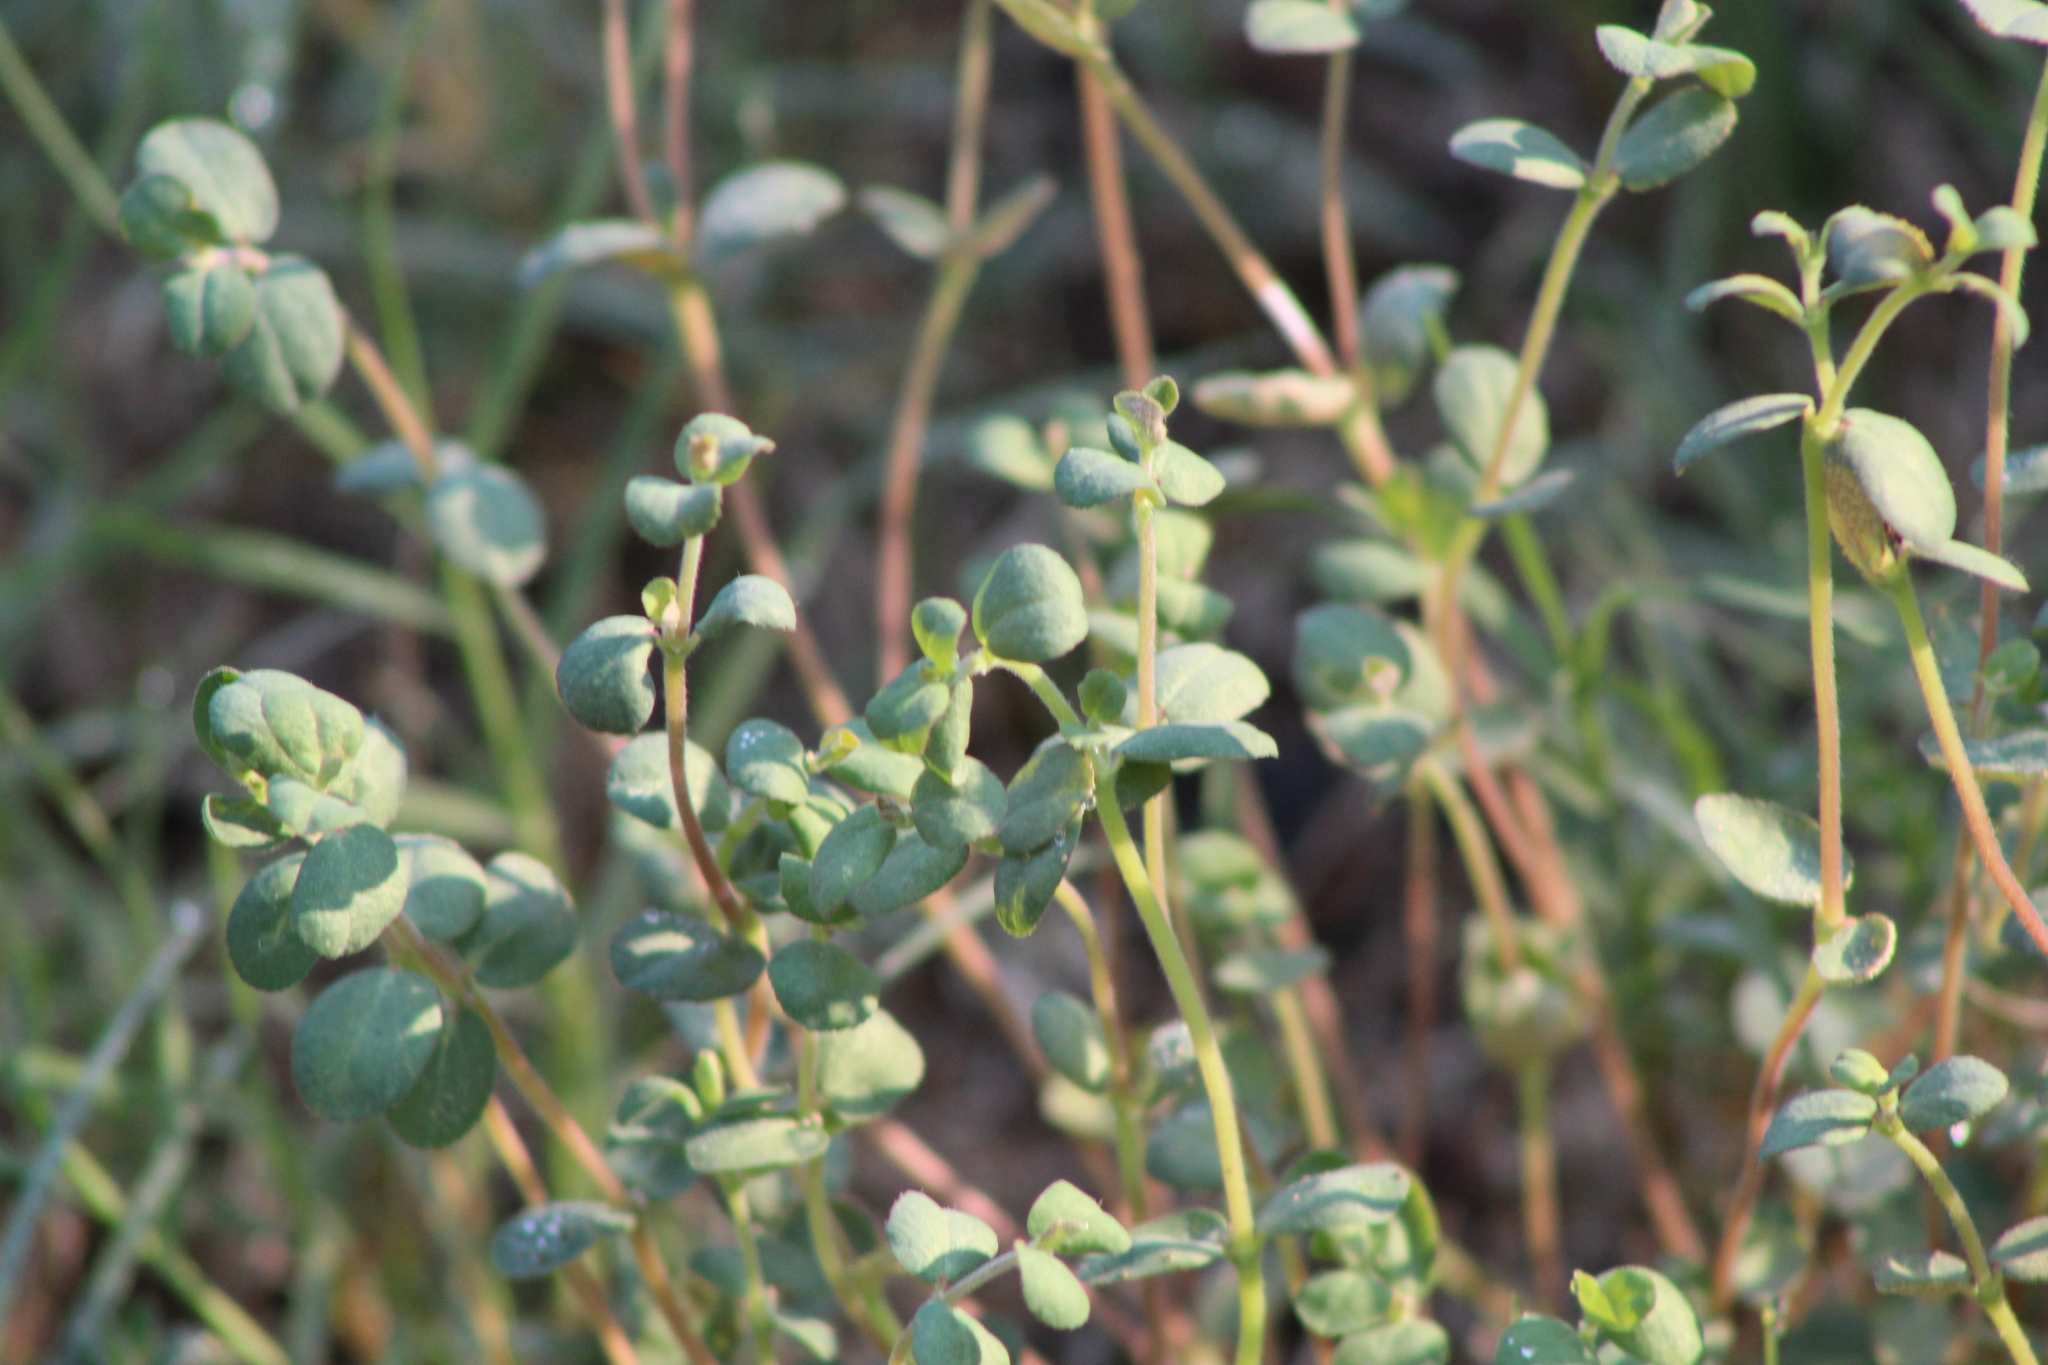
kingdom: Plantae
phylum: Tracheophyta
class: Magnoliopsida
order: Caryophyllales
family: Portulacaceae
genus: Portulaca
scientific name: Portulaca oleracea
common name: Common purslane
